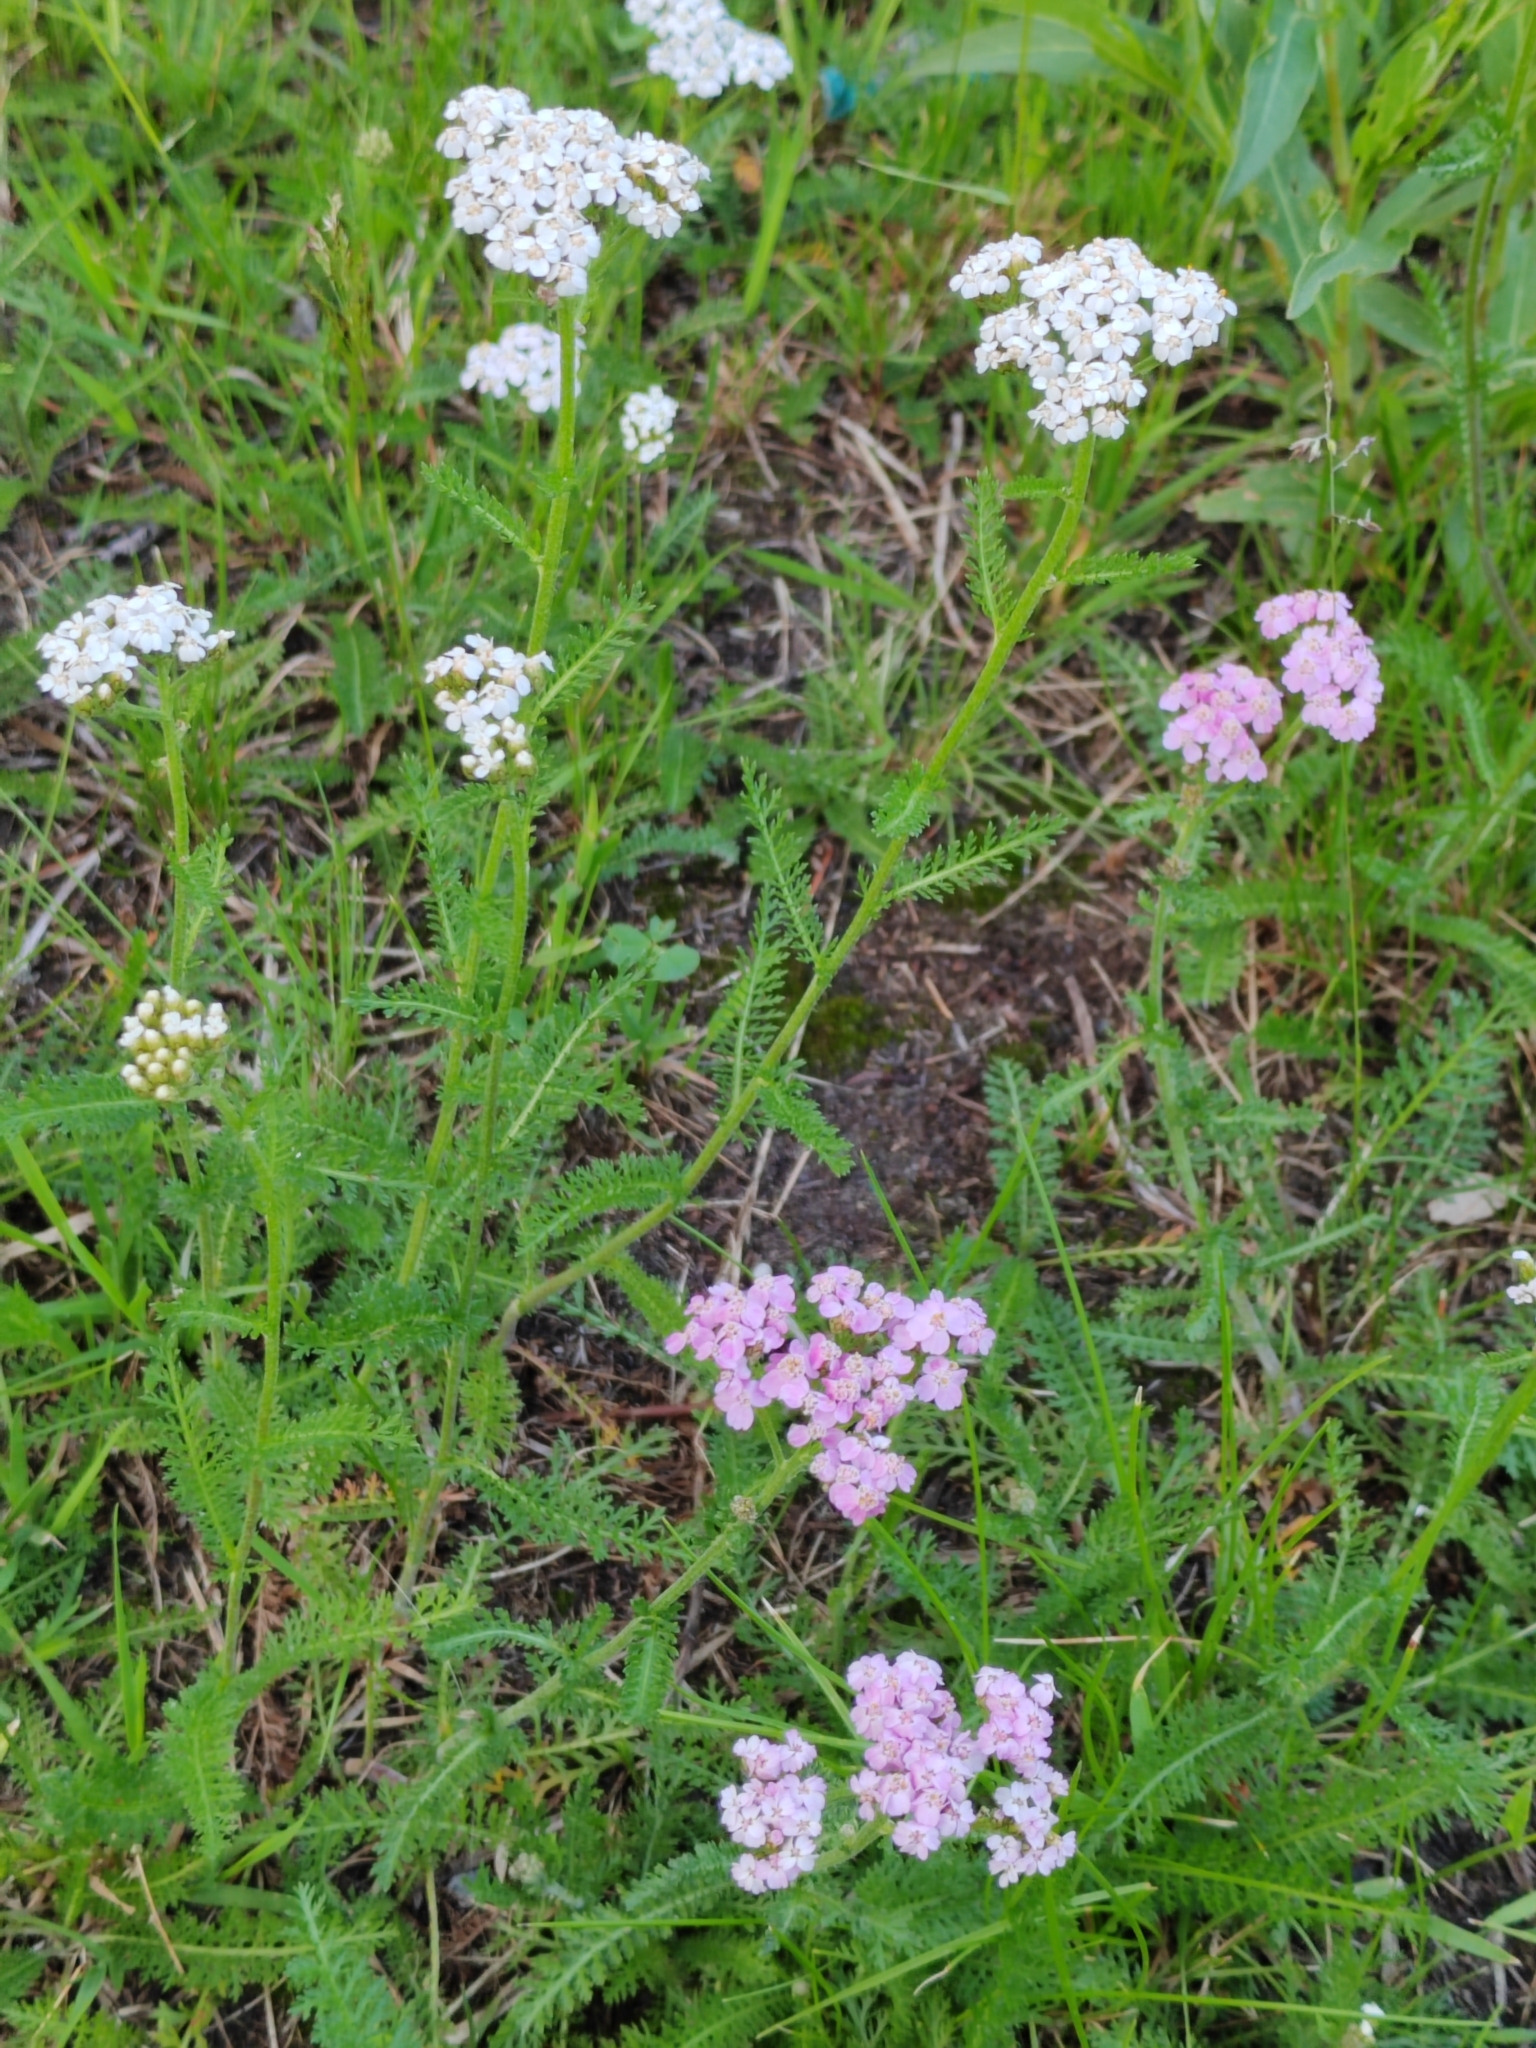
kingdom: Plantae
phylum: Tracheophyta
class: Magnoliopsida
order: Asterales
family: Asteraceae
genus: Achillea
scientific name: Achillea asiatica
